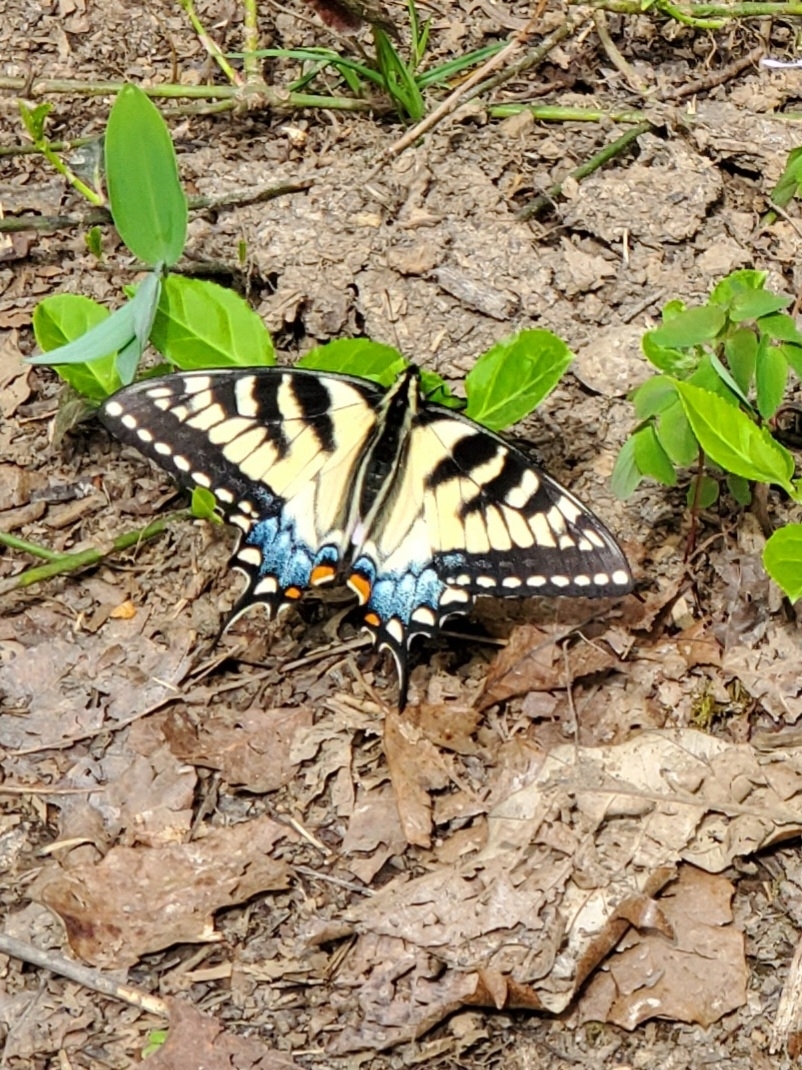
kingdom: Animalia
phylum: Arthropoda
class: Insecta
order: Lepidoptera
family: Papilionidae
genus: Papilio
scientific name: Papilio glaucus
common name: Tiger swallowtail
